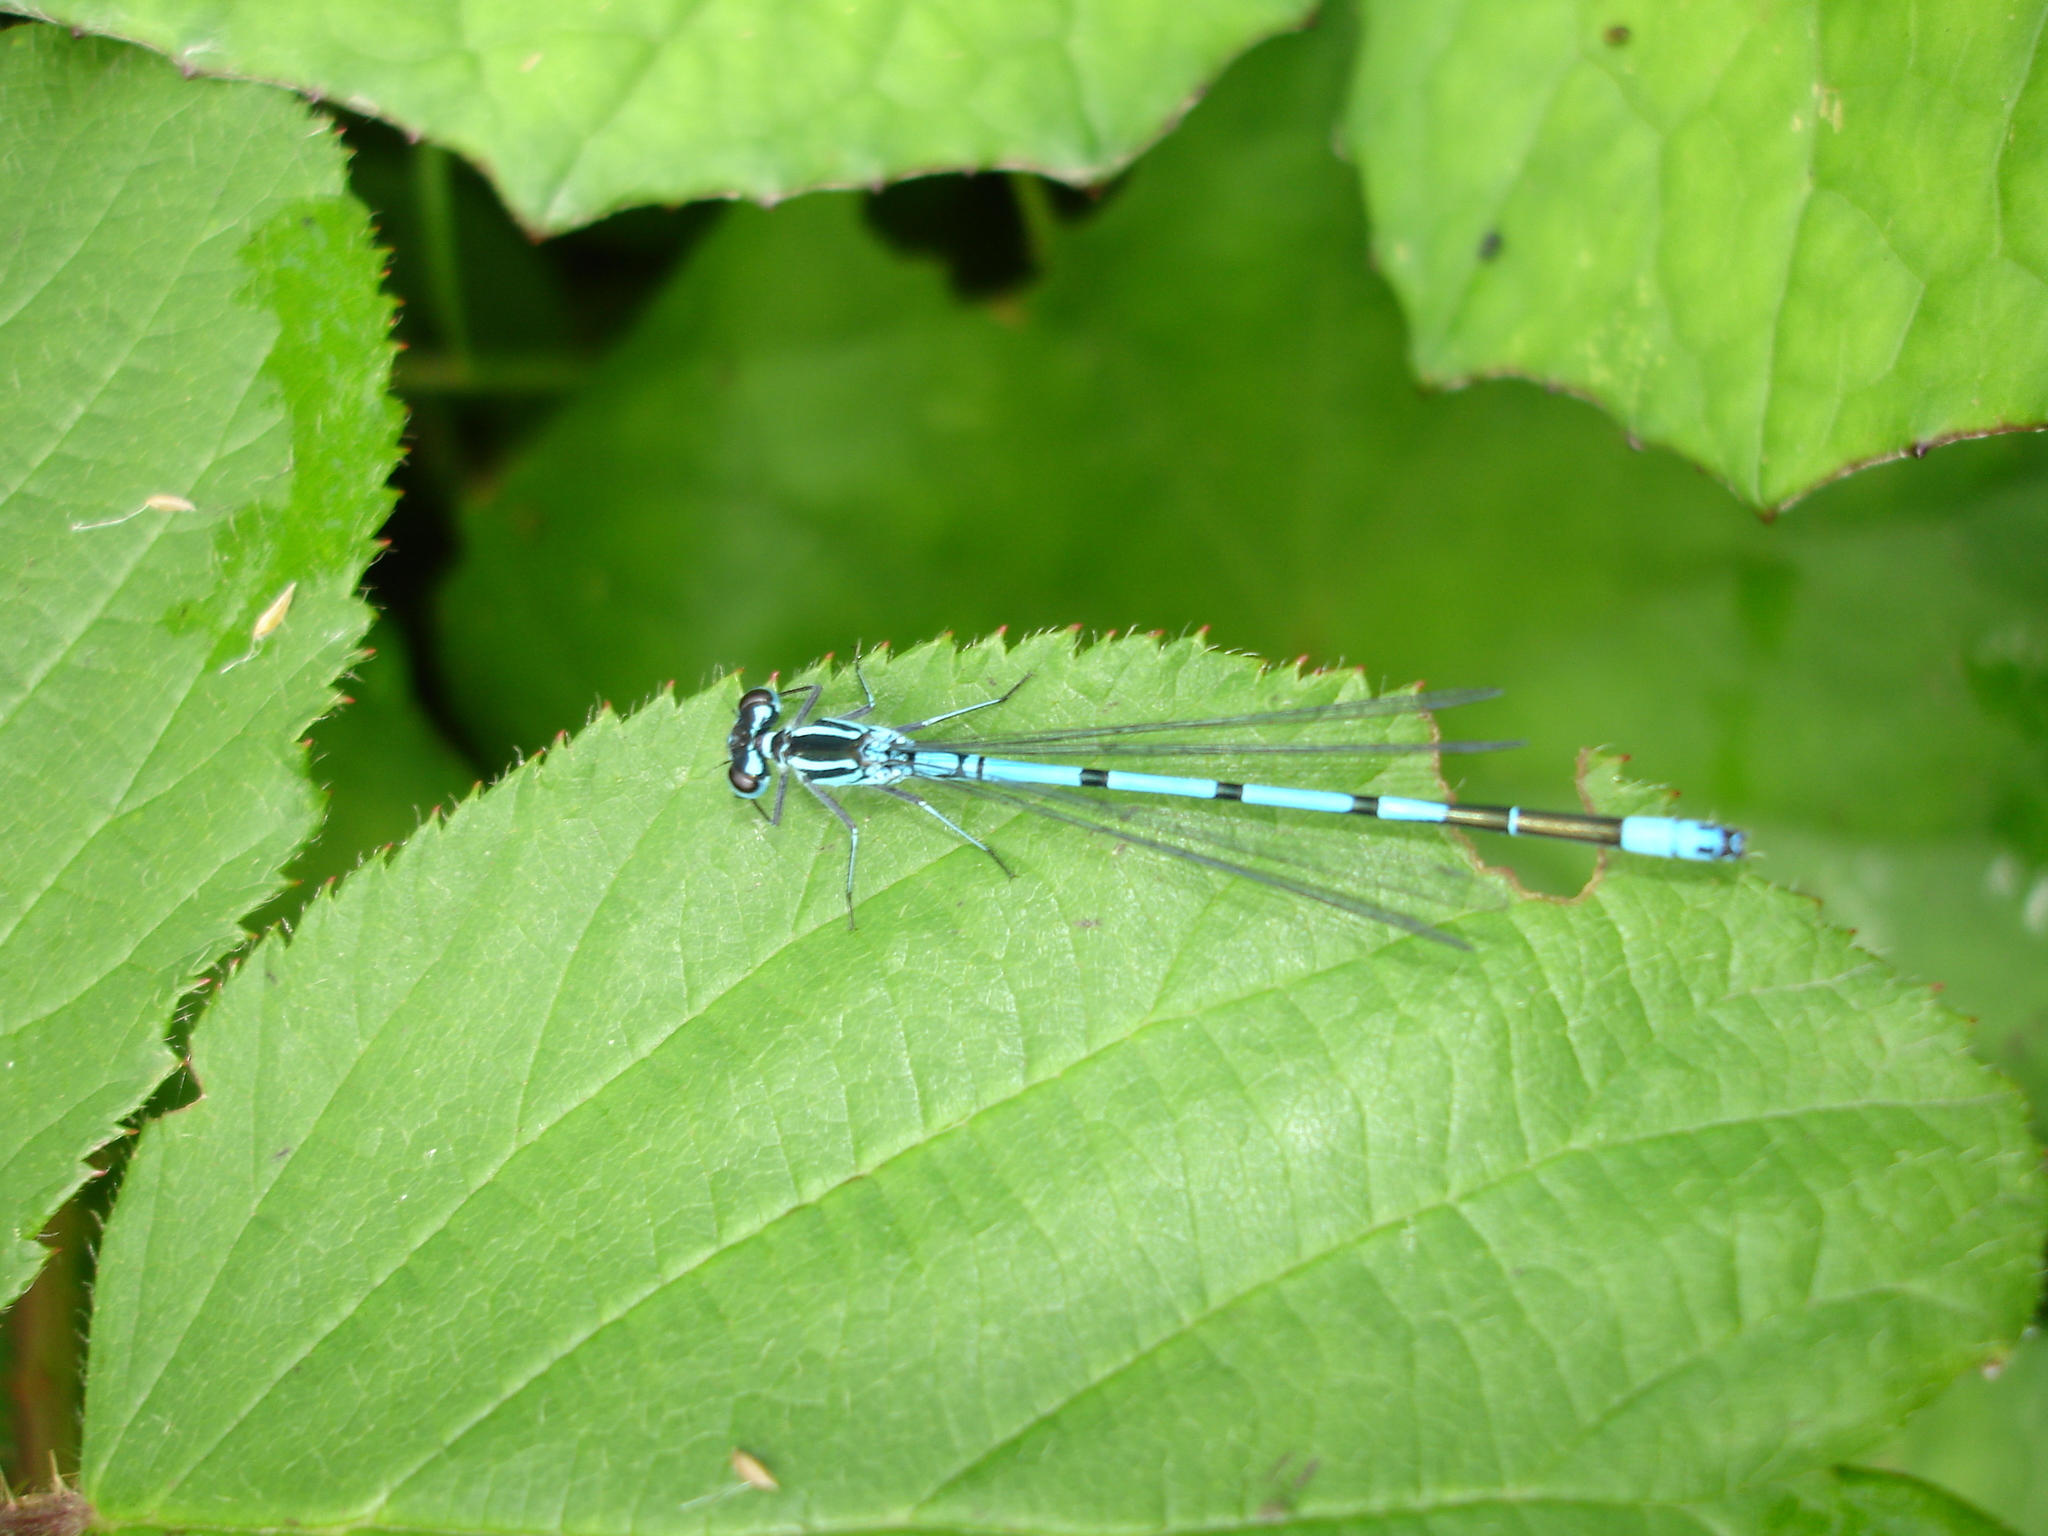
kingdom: Animalia
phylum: Arthropoda
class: Insecta
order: Odonata
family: Coenagrionidae
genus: Coenagrion
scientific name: Coenagrion puella
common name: Azure damselfly
